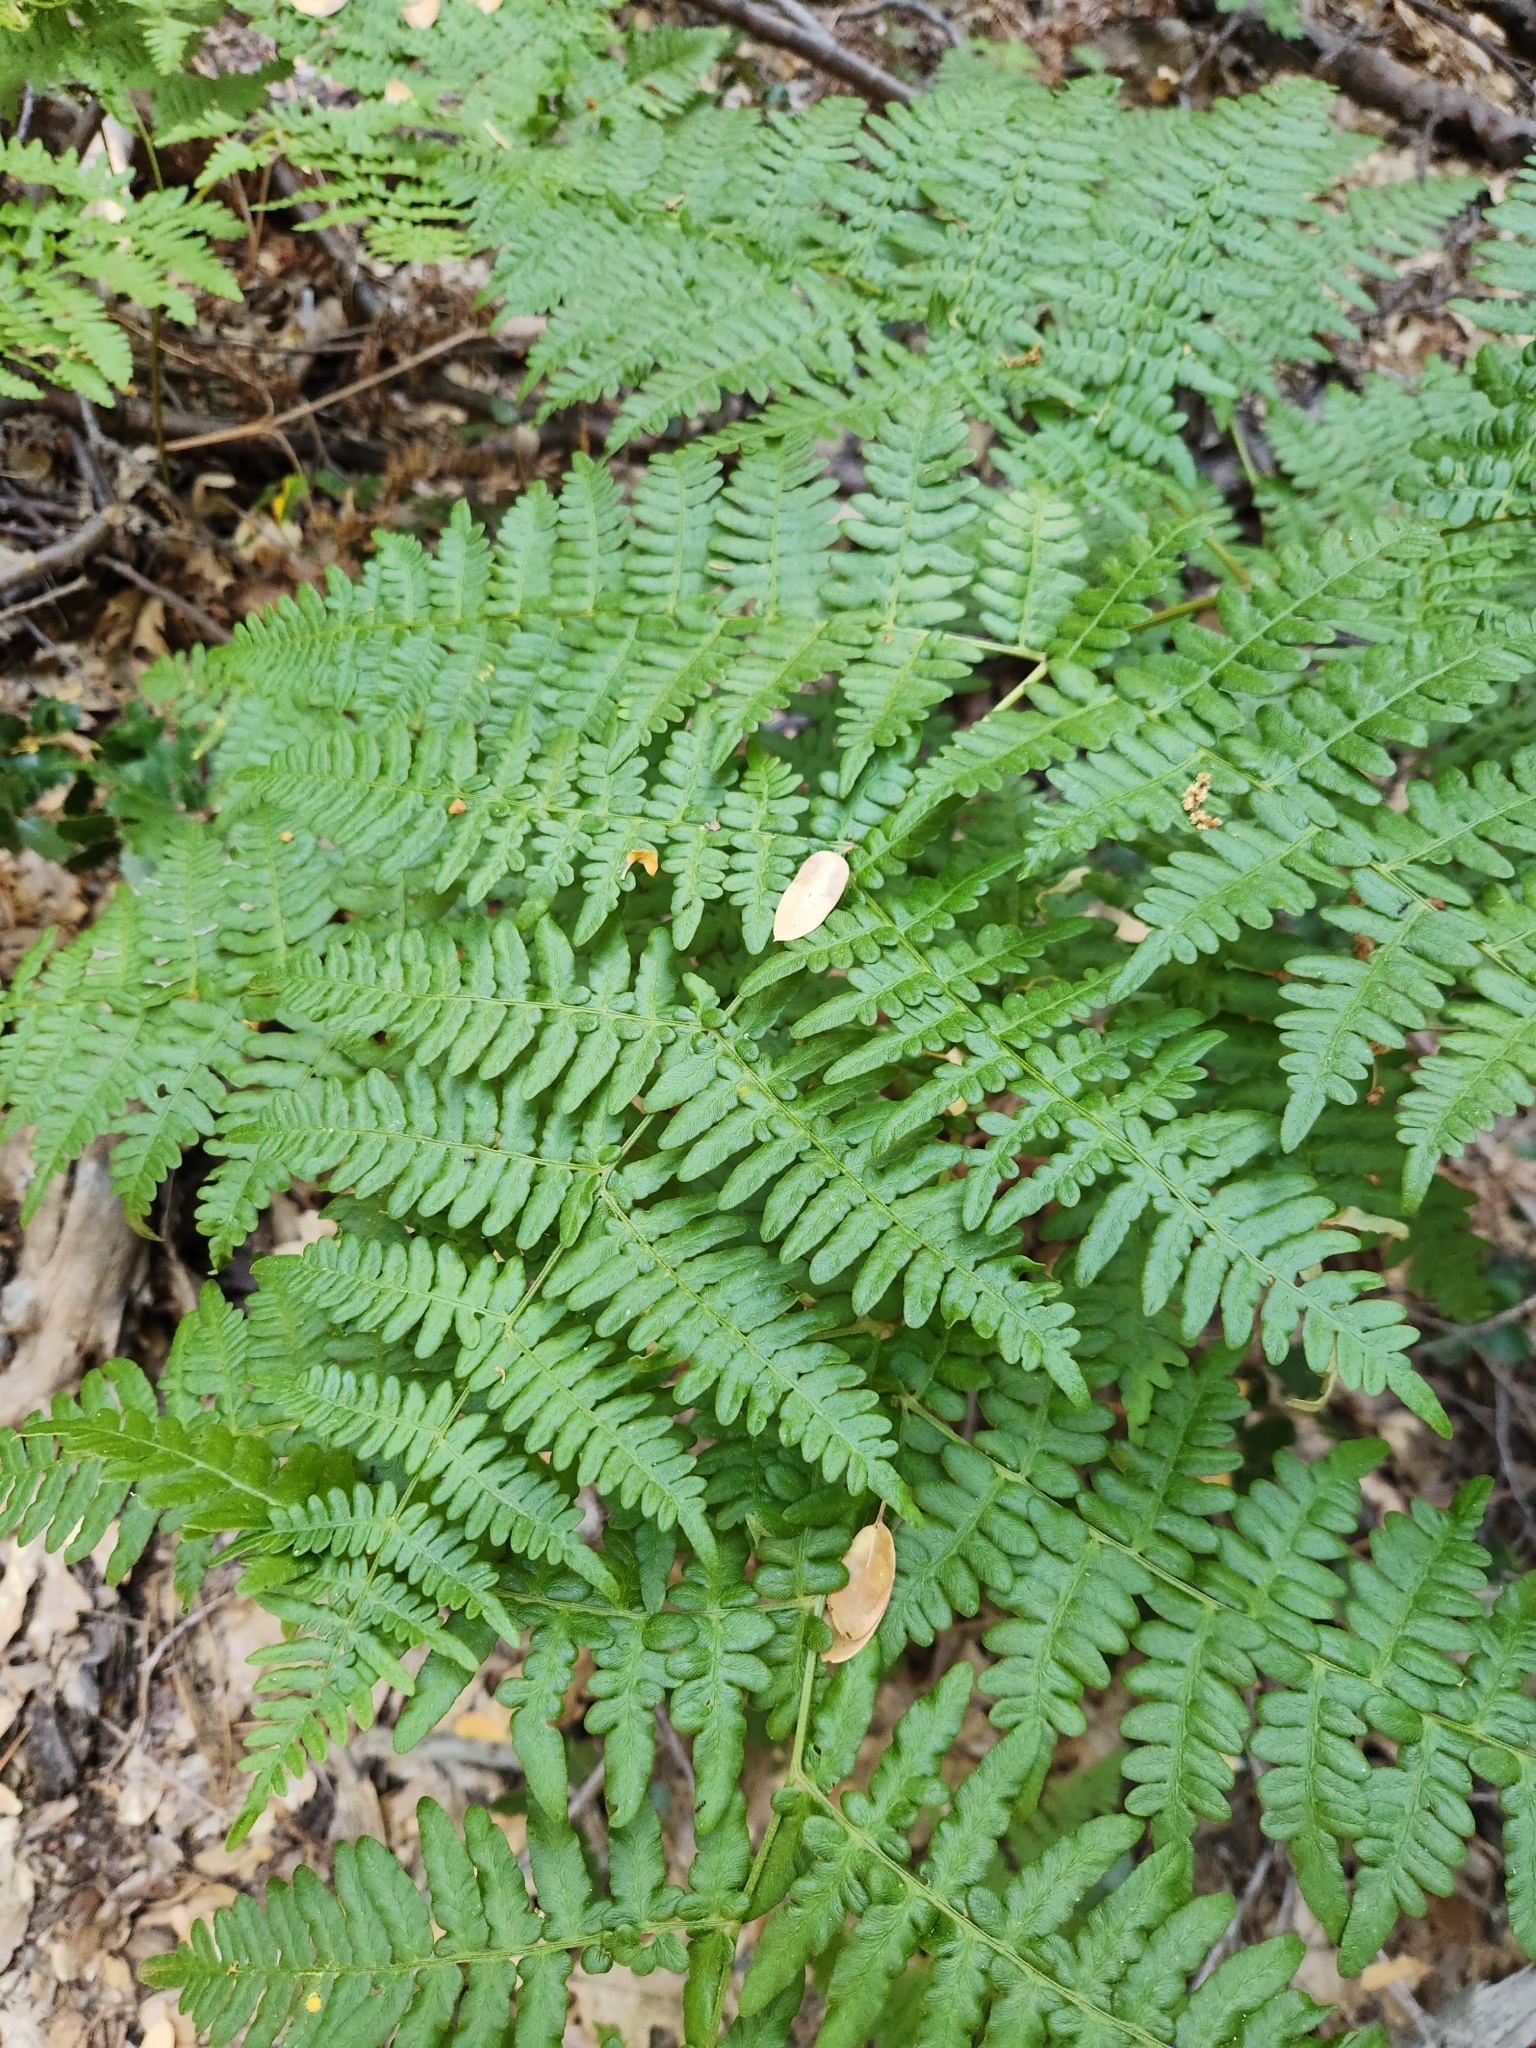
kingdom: Plantae
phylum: Tracheophyta
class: Polypodiopsida
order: Polypodiales
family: Dennstaedtiaceae
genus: Pteridium
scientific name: Pteridium aquilinum
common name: Bracken
